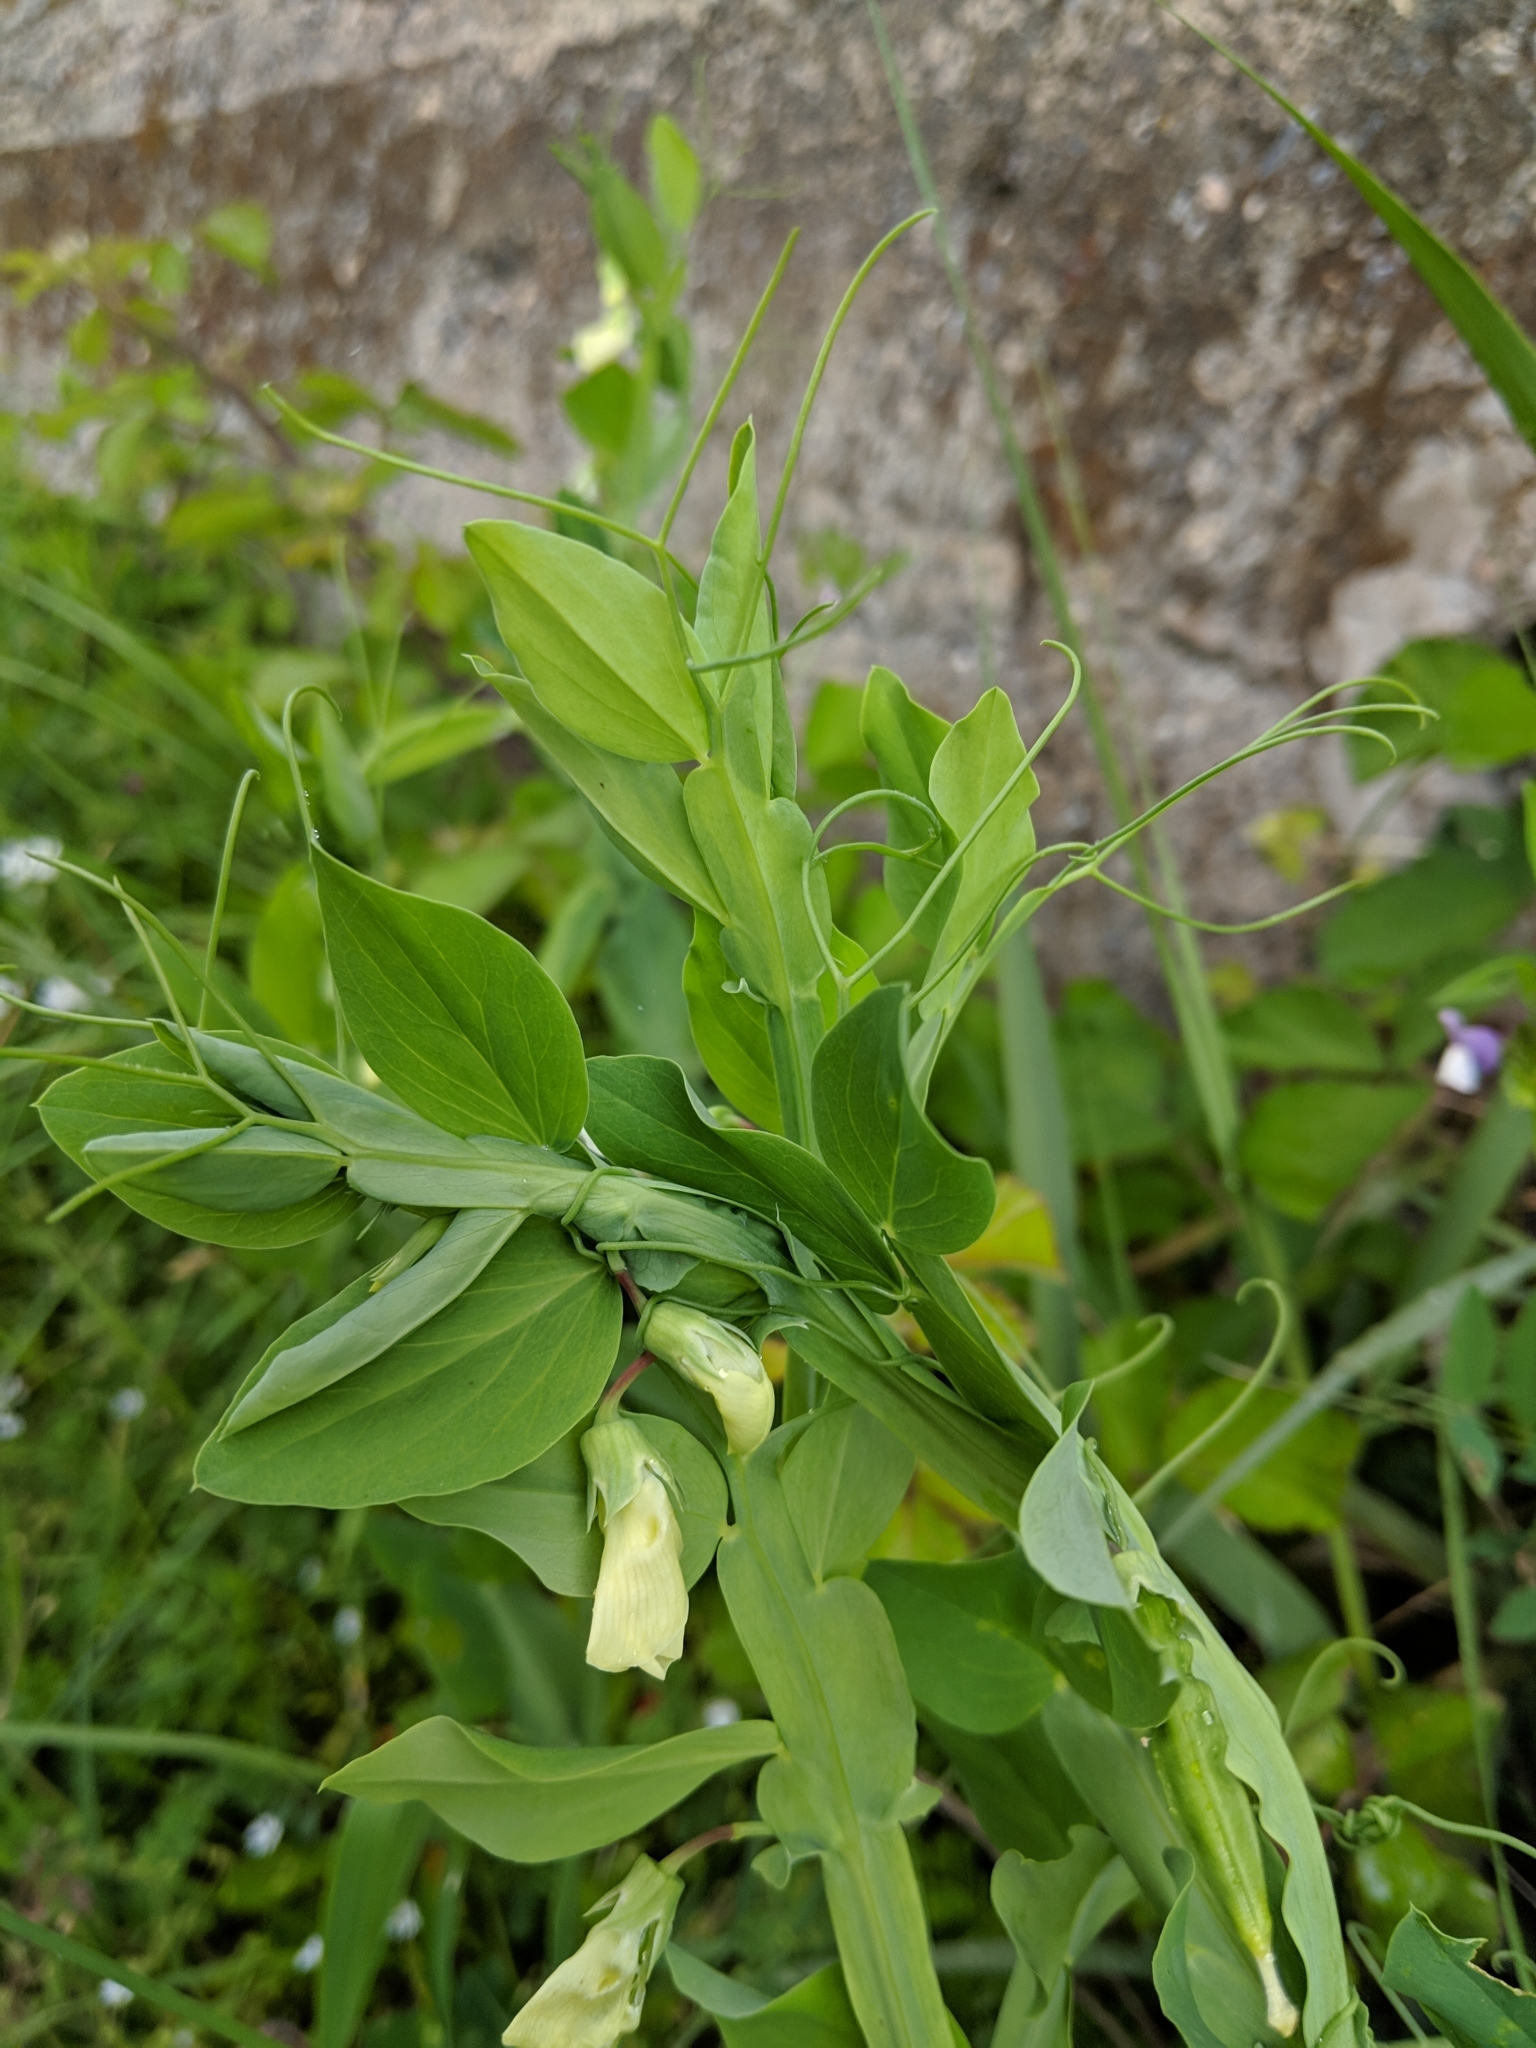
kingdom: Plantae
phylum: Tracheophyta
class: Magnoliopsida
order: Fabales
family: Fabaceae
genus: Lathyrus
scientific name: Lathyrus ochrus
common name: Winged vetchling
